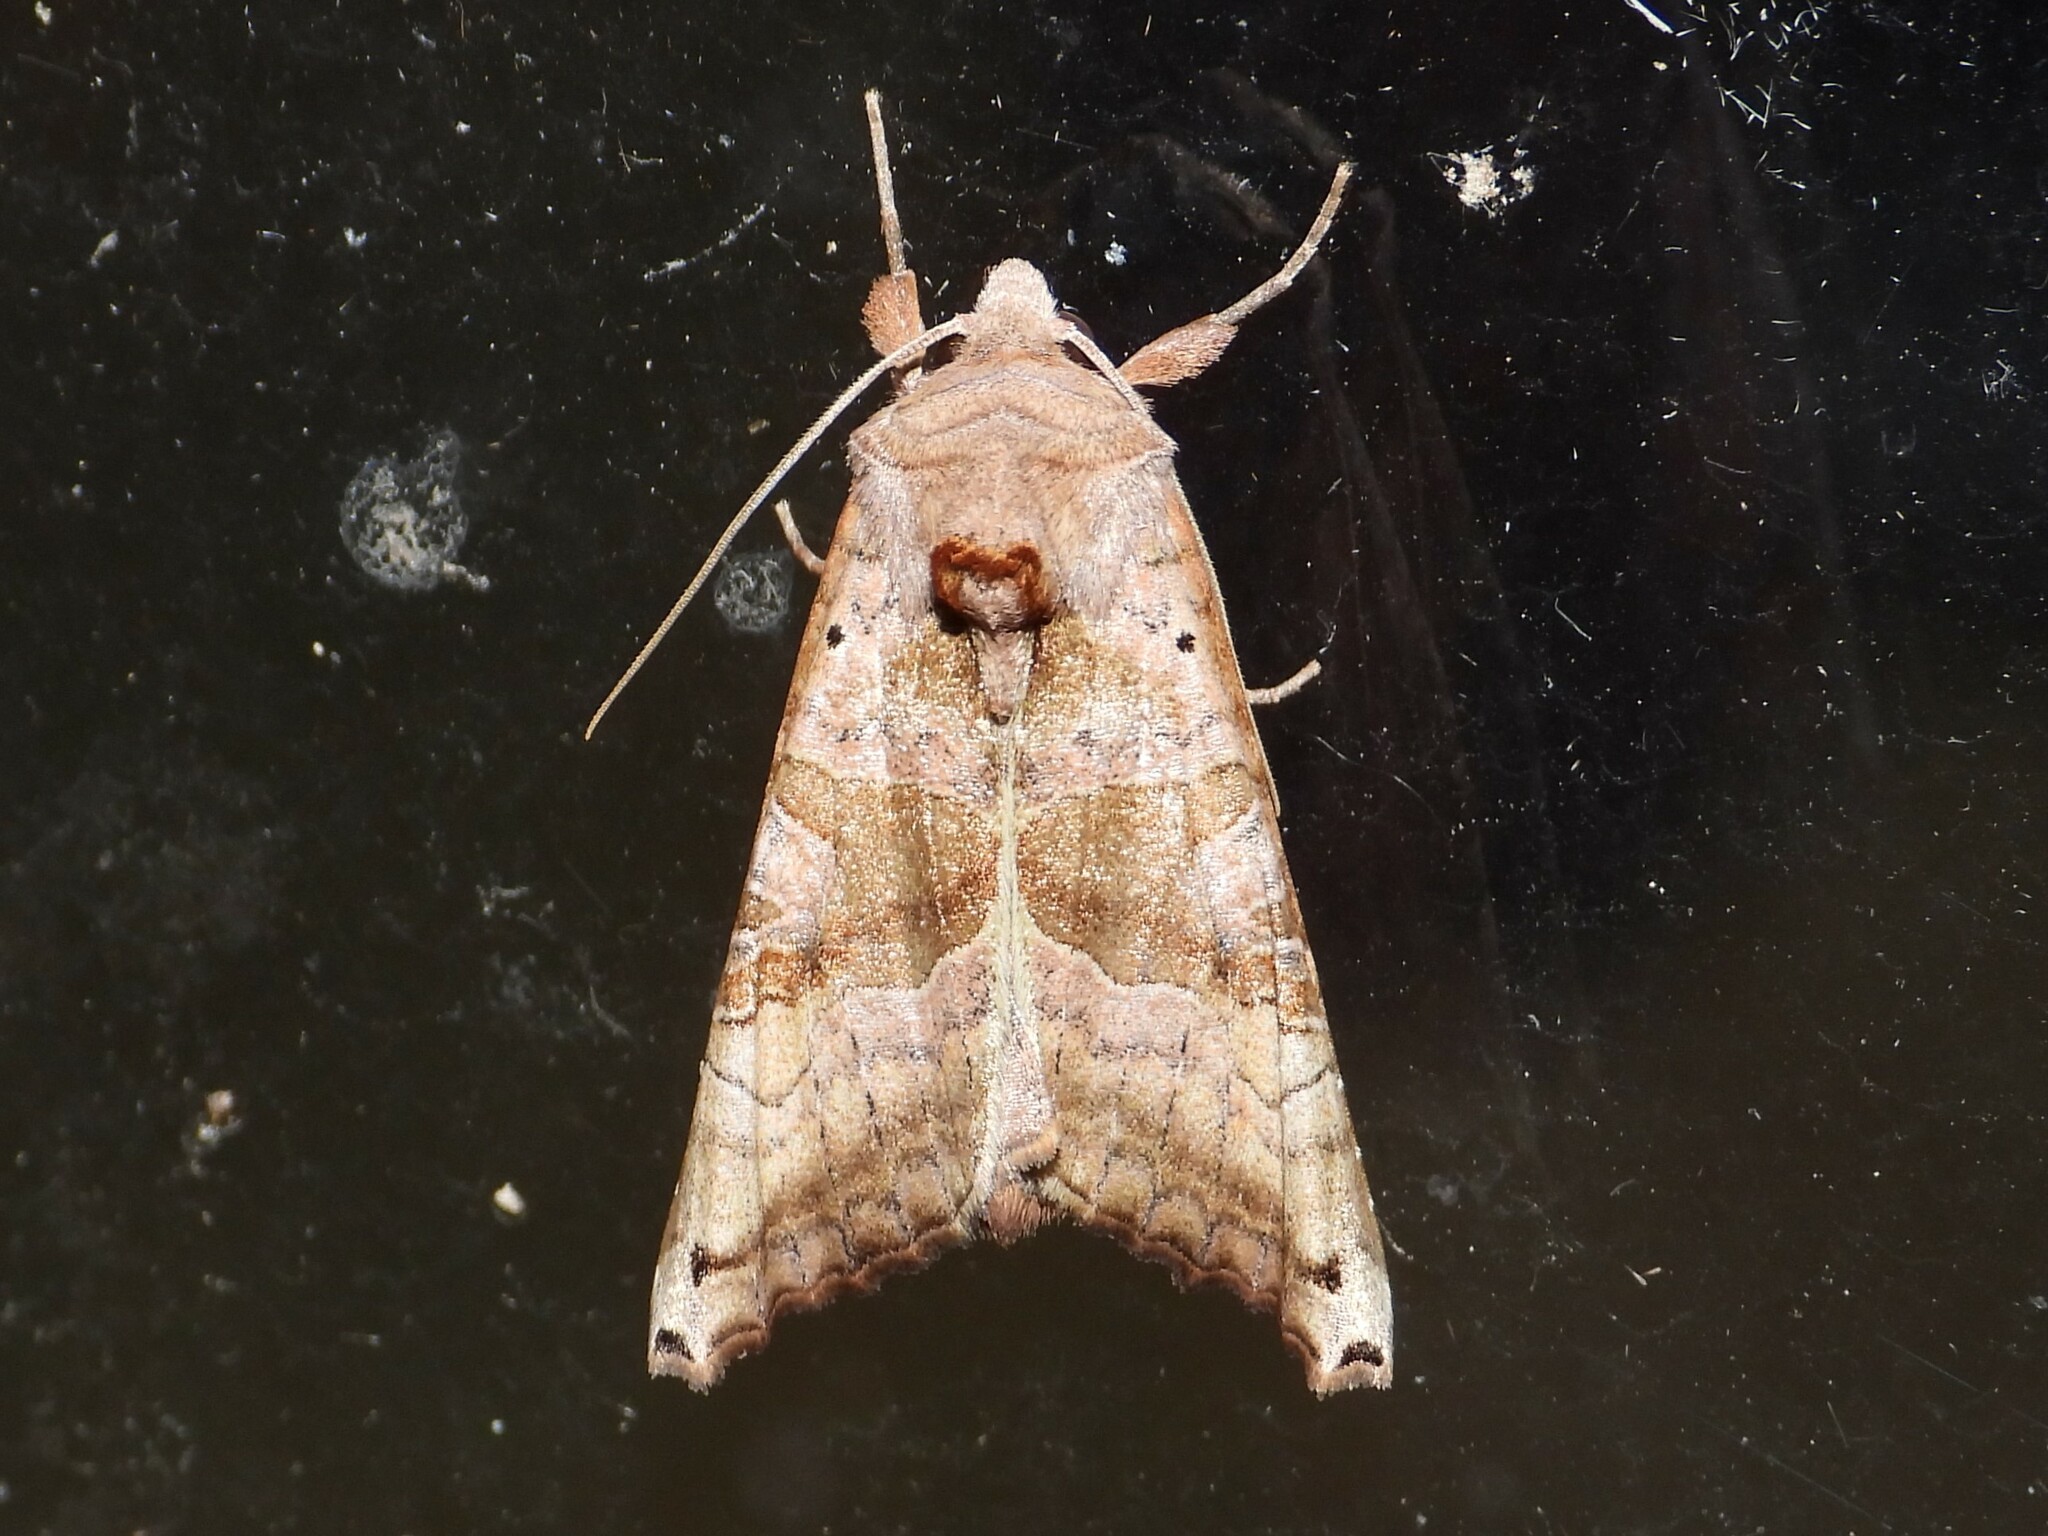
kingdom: Animalia
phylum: Arthropoda
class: Insecta
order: Lepidoptera
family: Noctuidae
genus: Phlogophora
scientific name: Phlogophora periculosa
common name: Brown angle shades
